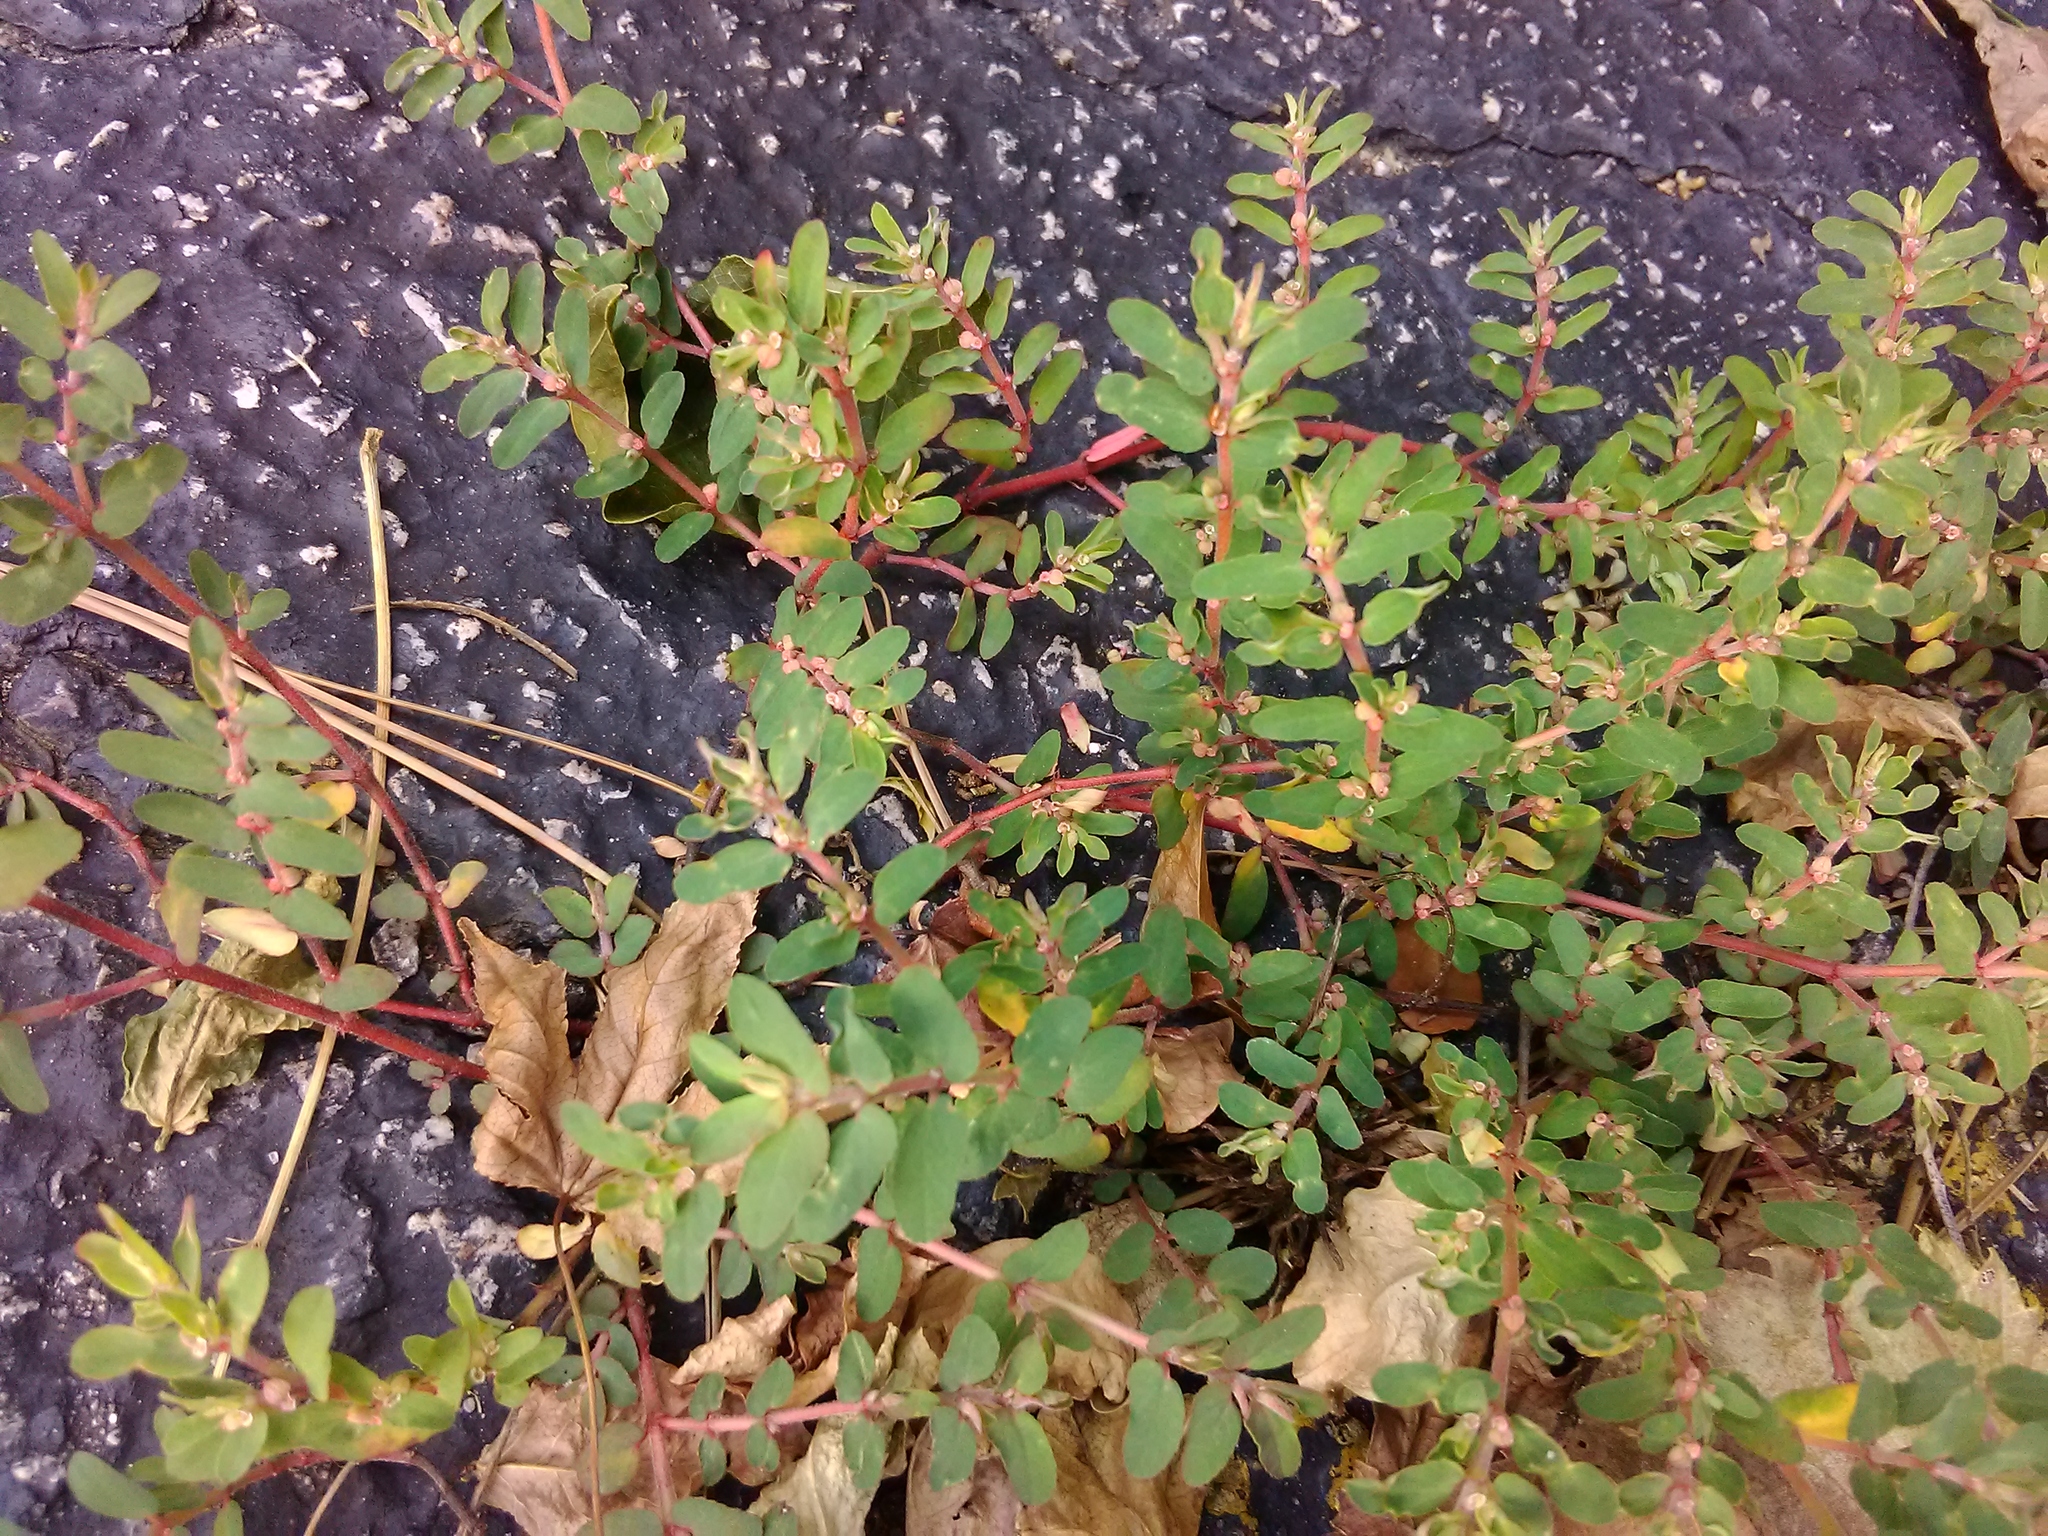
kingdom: Plantae
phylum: Tracheophyta
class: Magnoliopsida
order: Malpighiales
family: Euphorbiaceae
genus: Euphorbia
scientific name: Euphorbia maculata
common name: Spotted spurge
